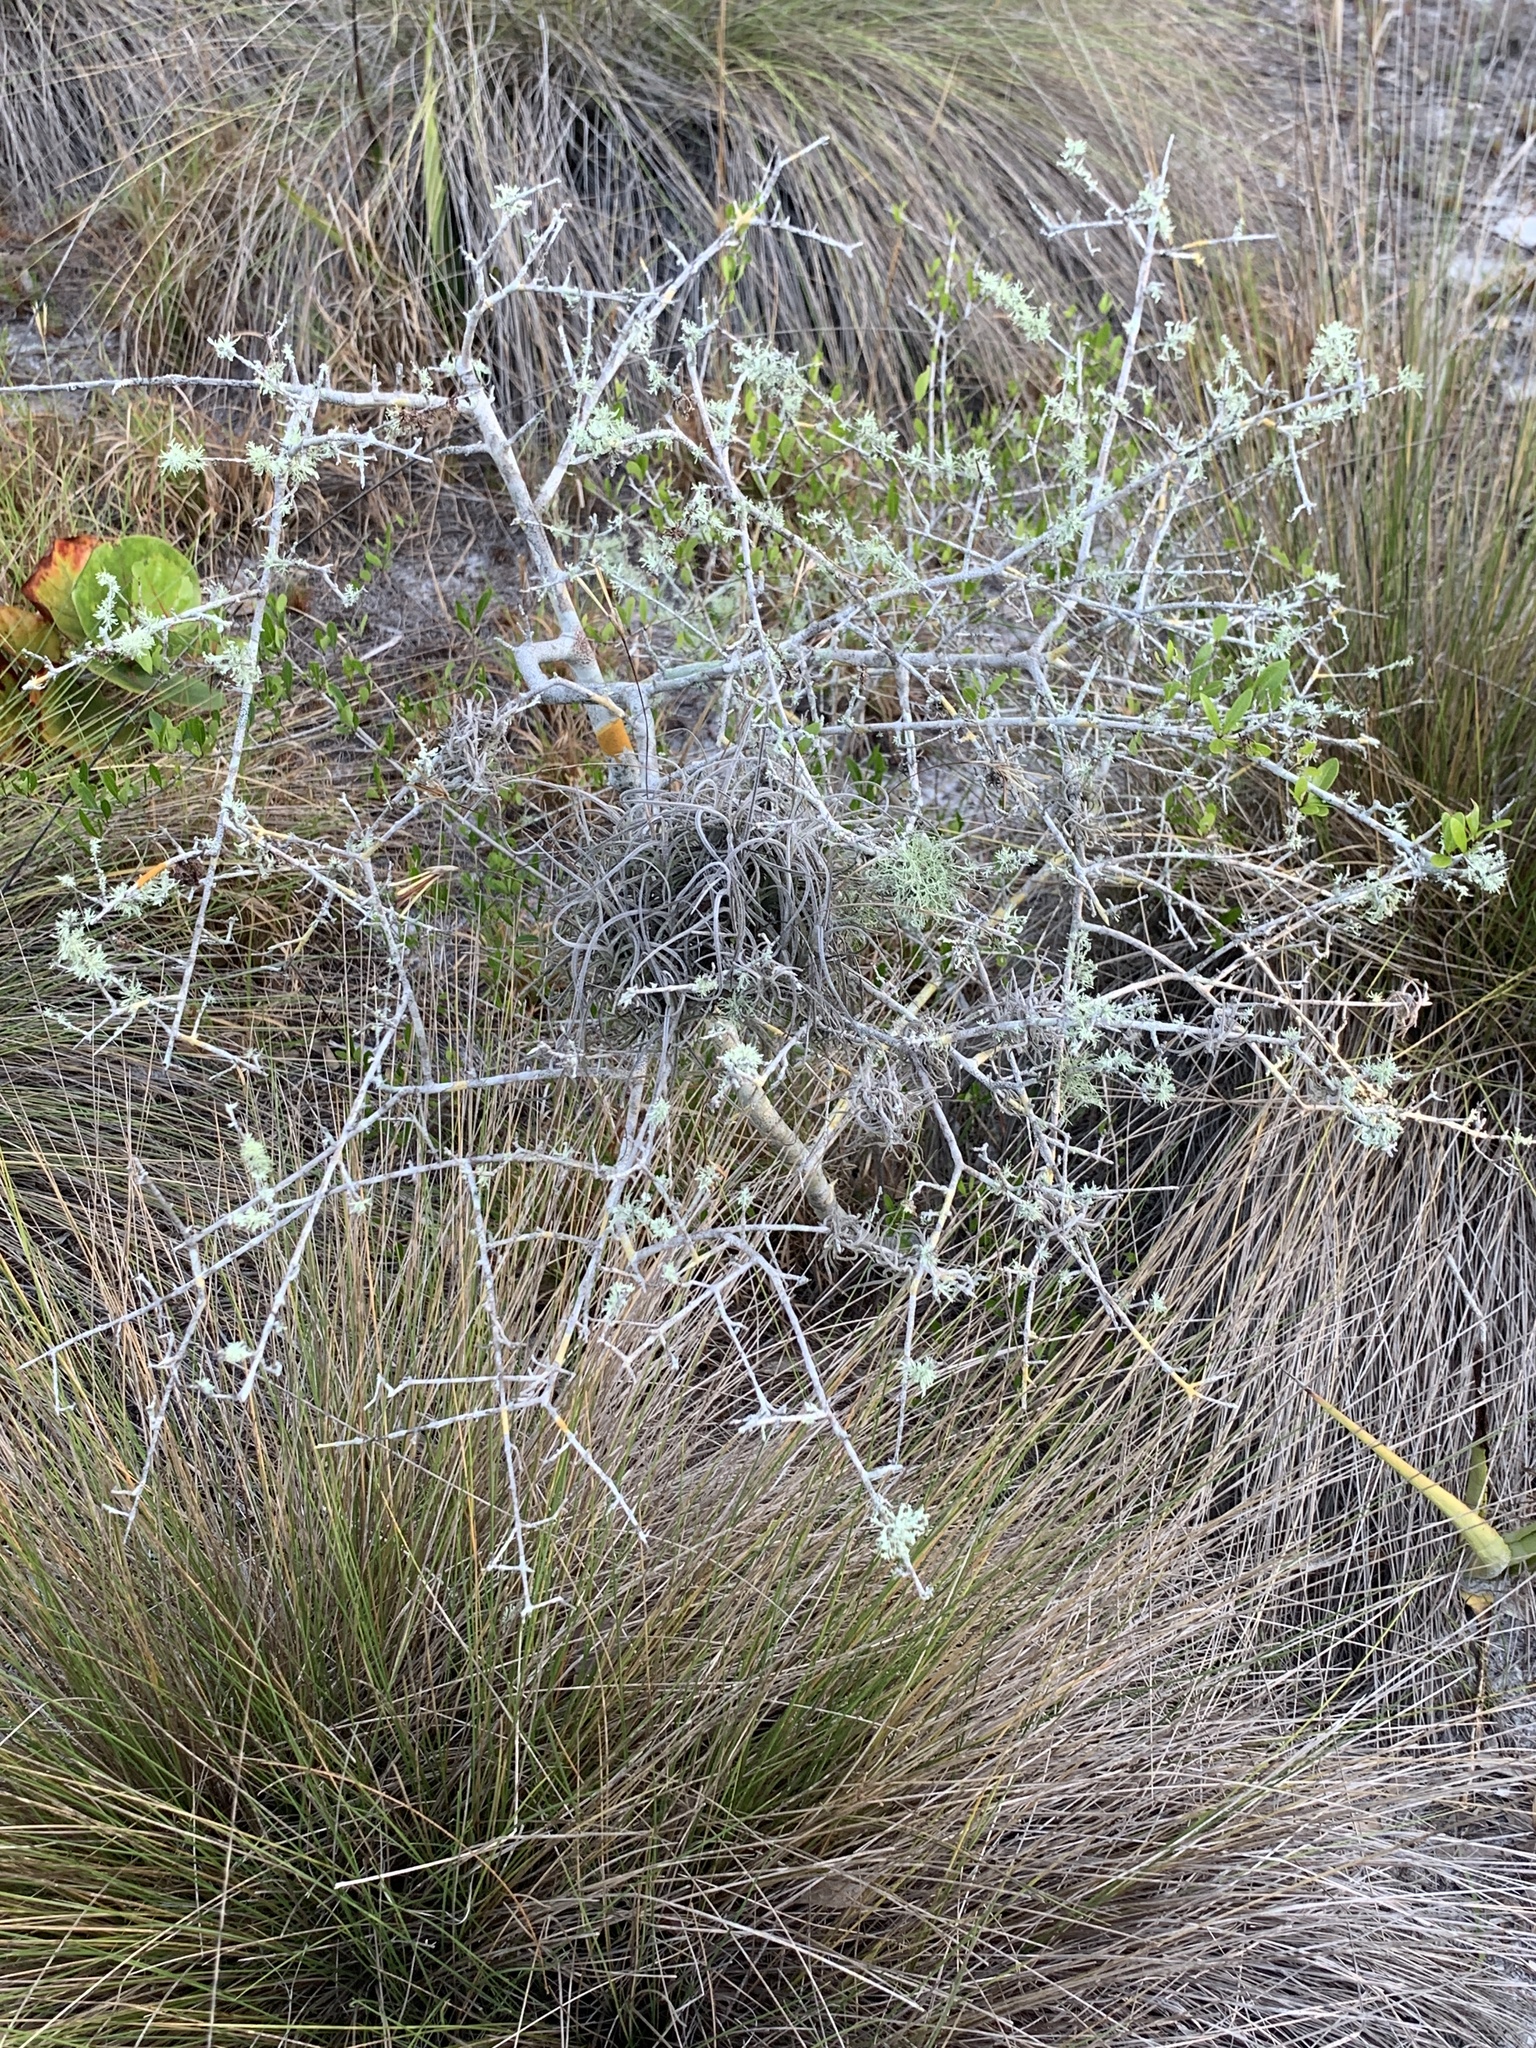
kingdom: Plantae
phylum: Tracheophyta
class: Liliopsida
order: Poales
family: Bromeliaceae
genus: Tillandsia
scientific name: Tillandsia recurvata
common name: Small ballmoss
